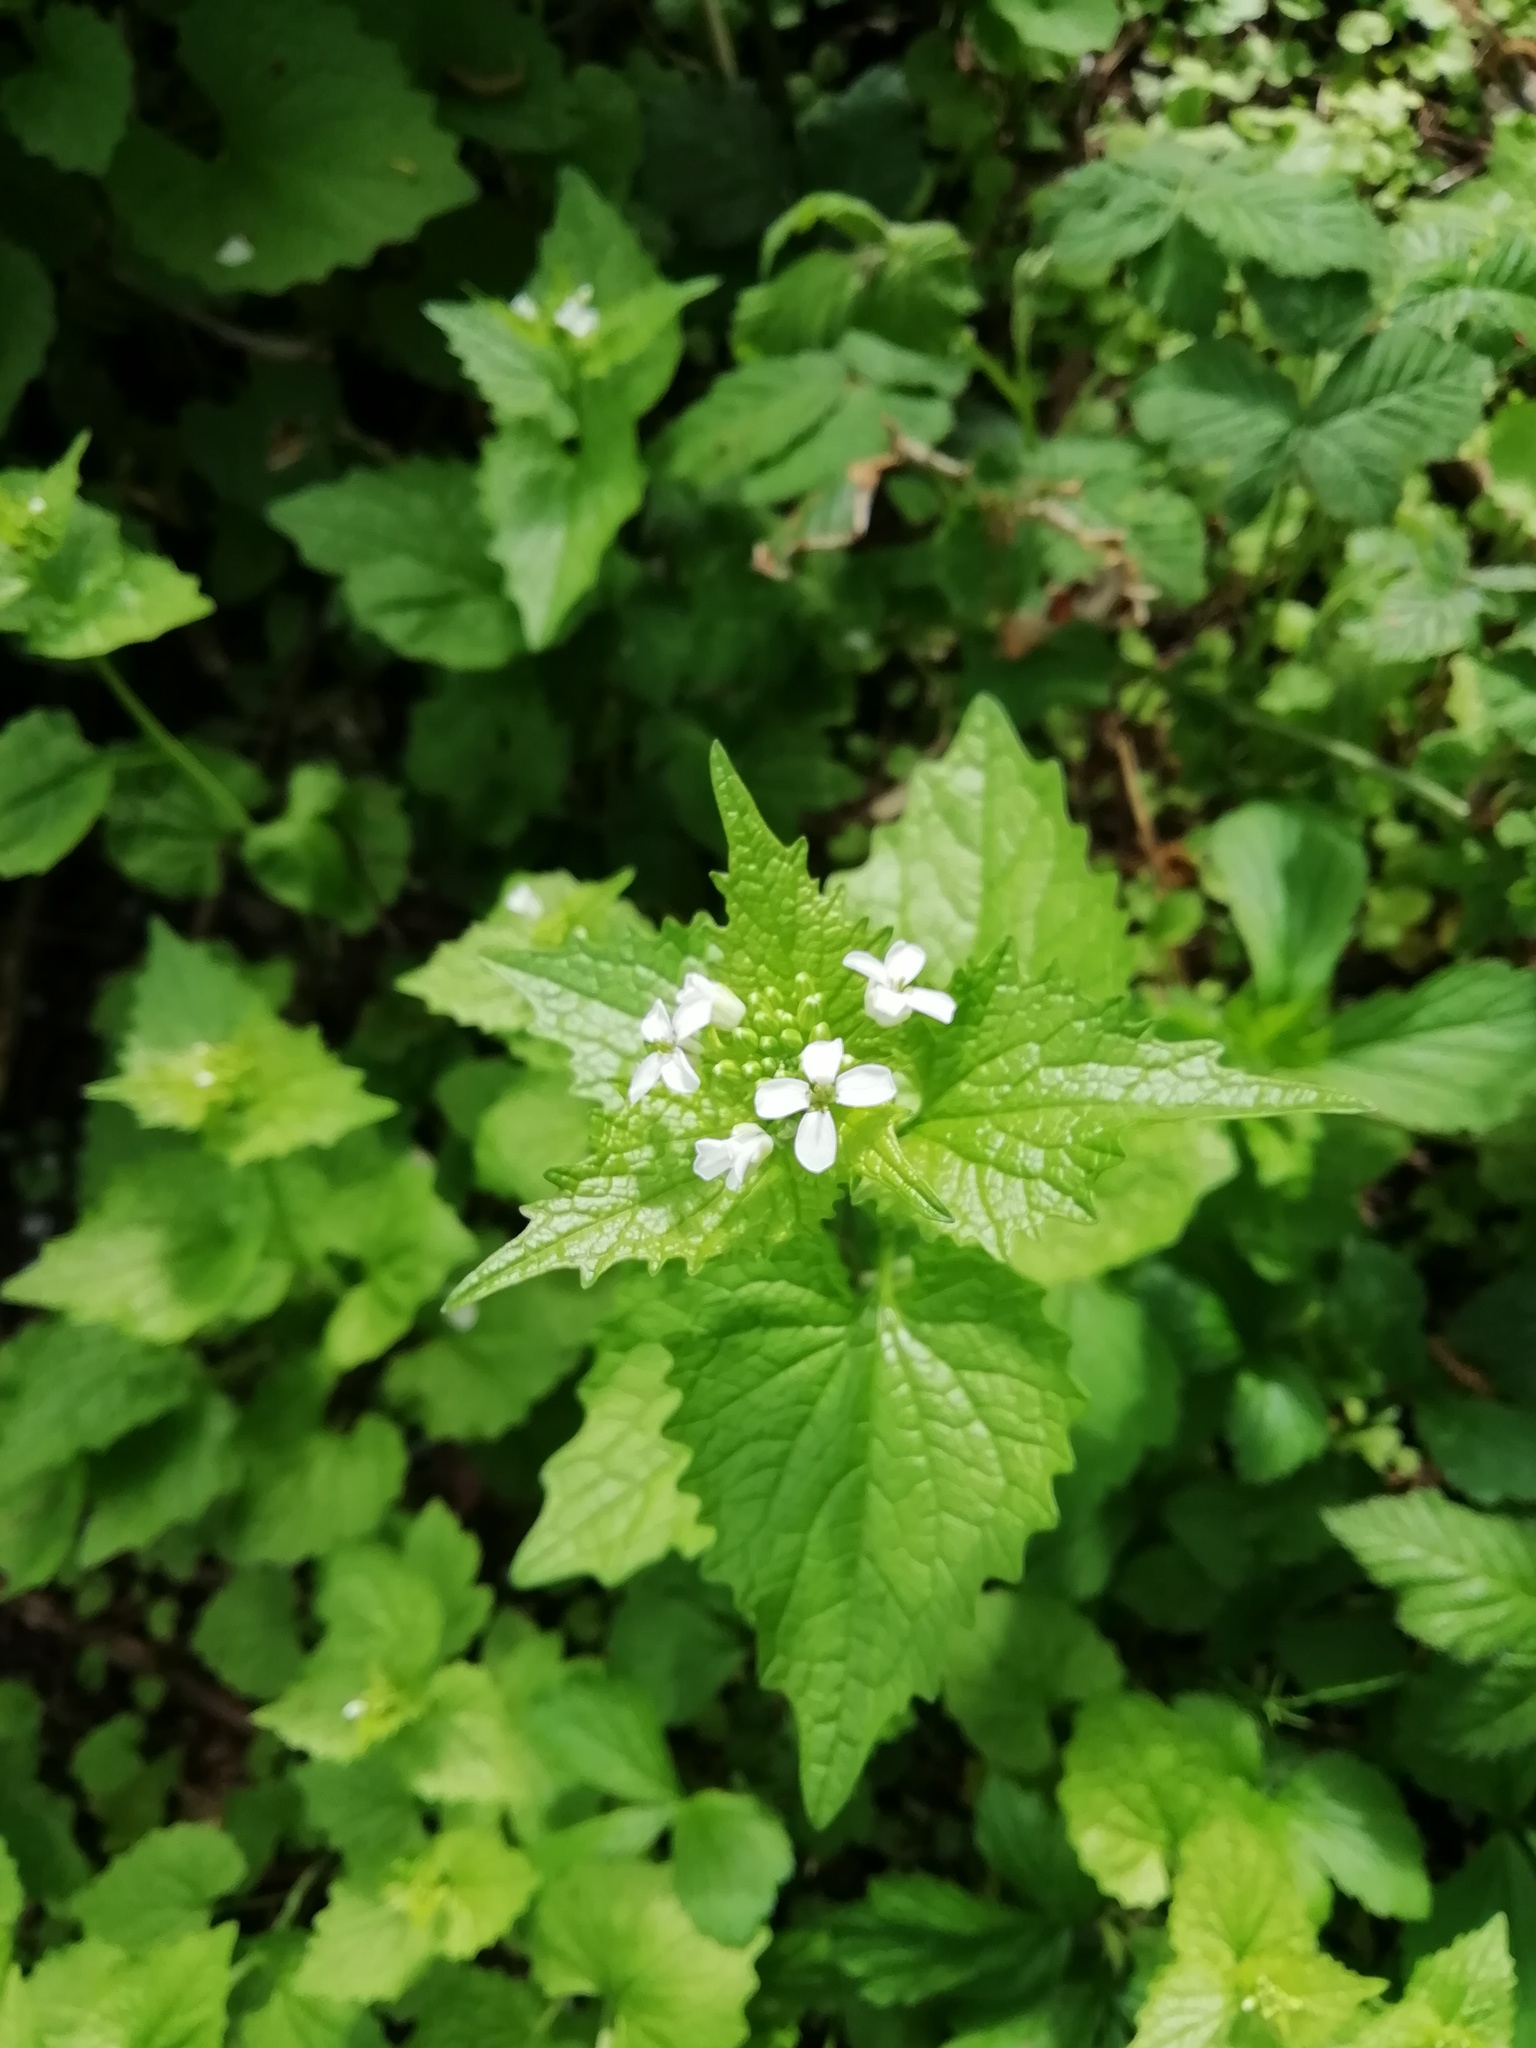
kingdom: Plantae
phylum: Tracheophyta
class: Magnoliopsida
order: Brassicales
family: Brassicaceae
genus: Alliaria
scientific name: Alliaria petiolata
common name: Garlic mustard
